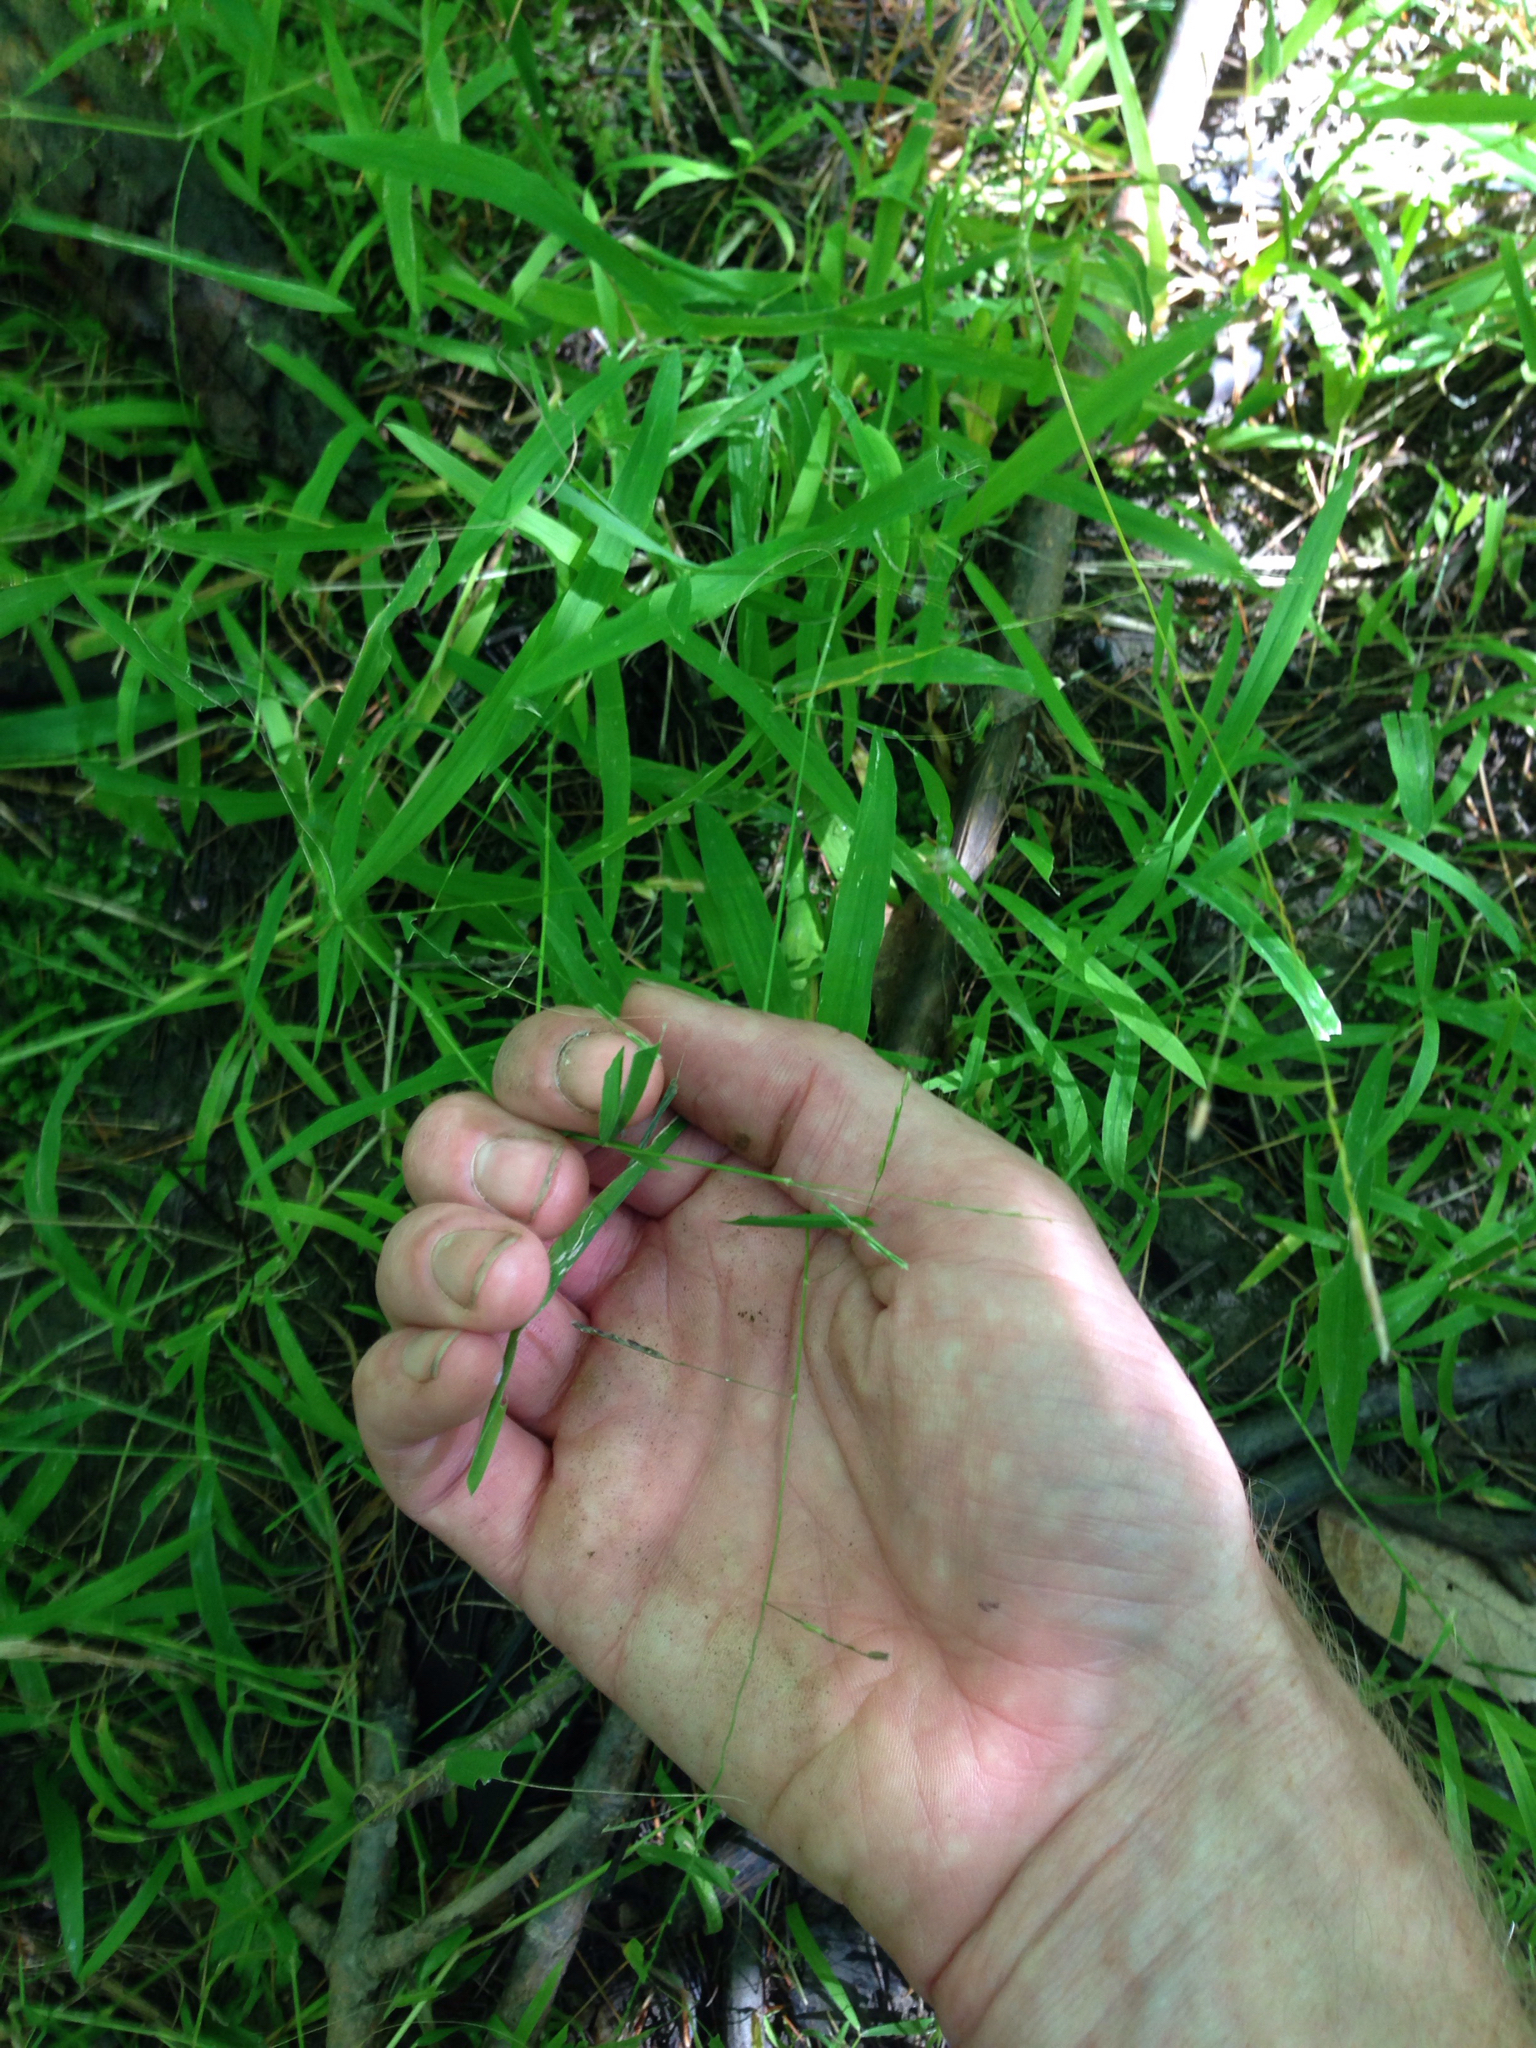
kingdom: Plantae
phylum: Tracheophyta
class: Liliopsida
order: Poales
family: Poaceae
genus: Leersia
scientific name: Leersia virginica
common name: White cutgrass
